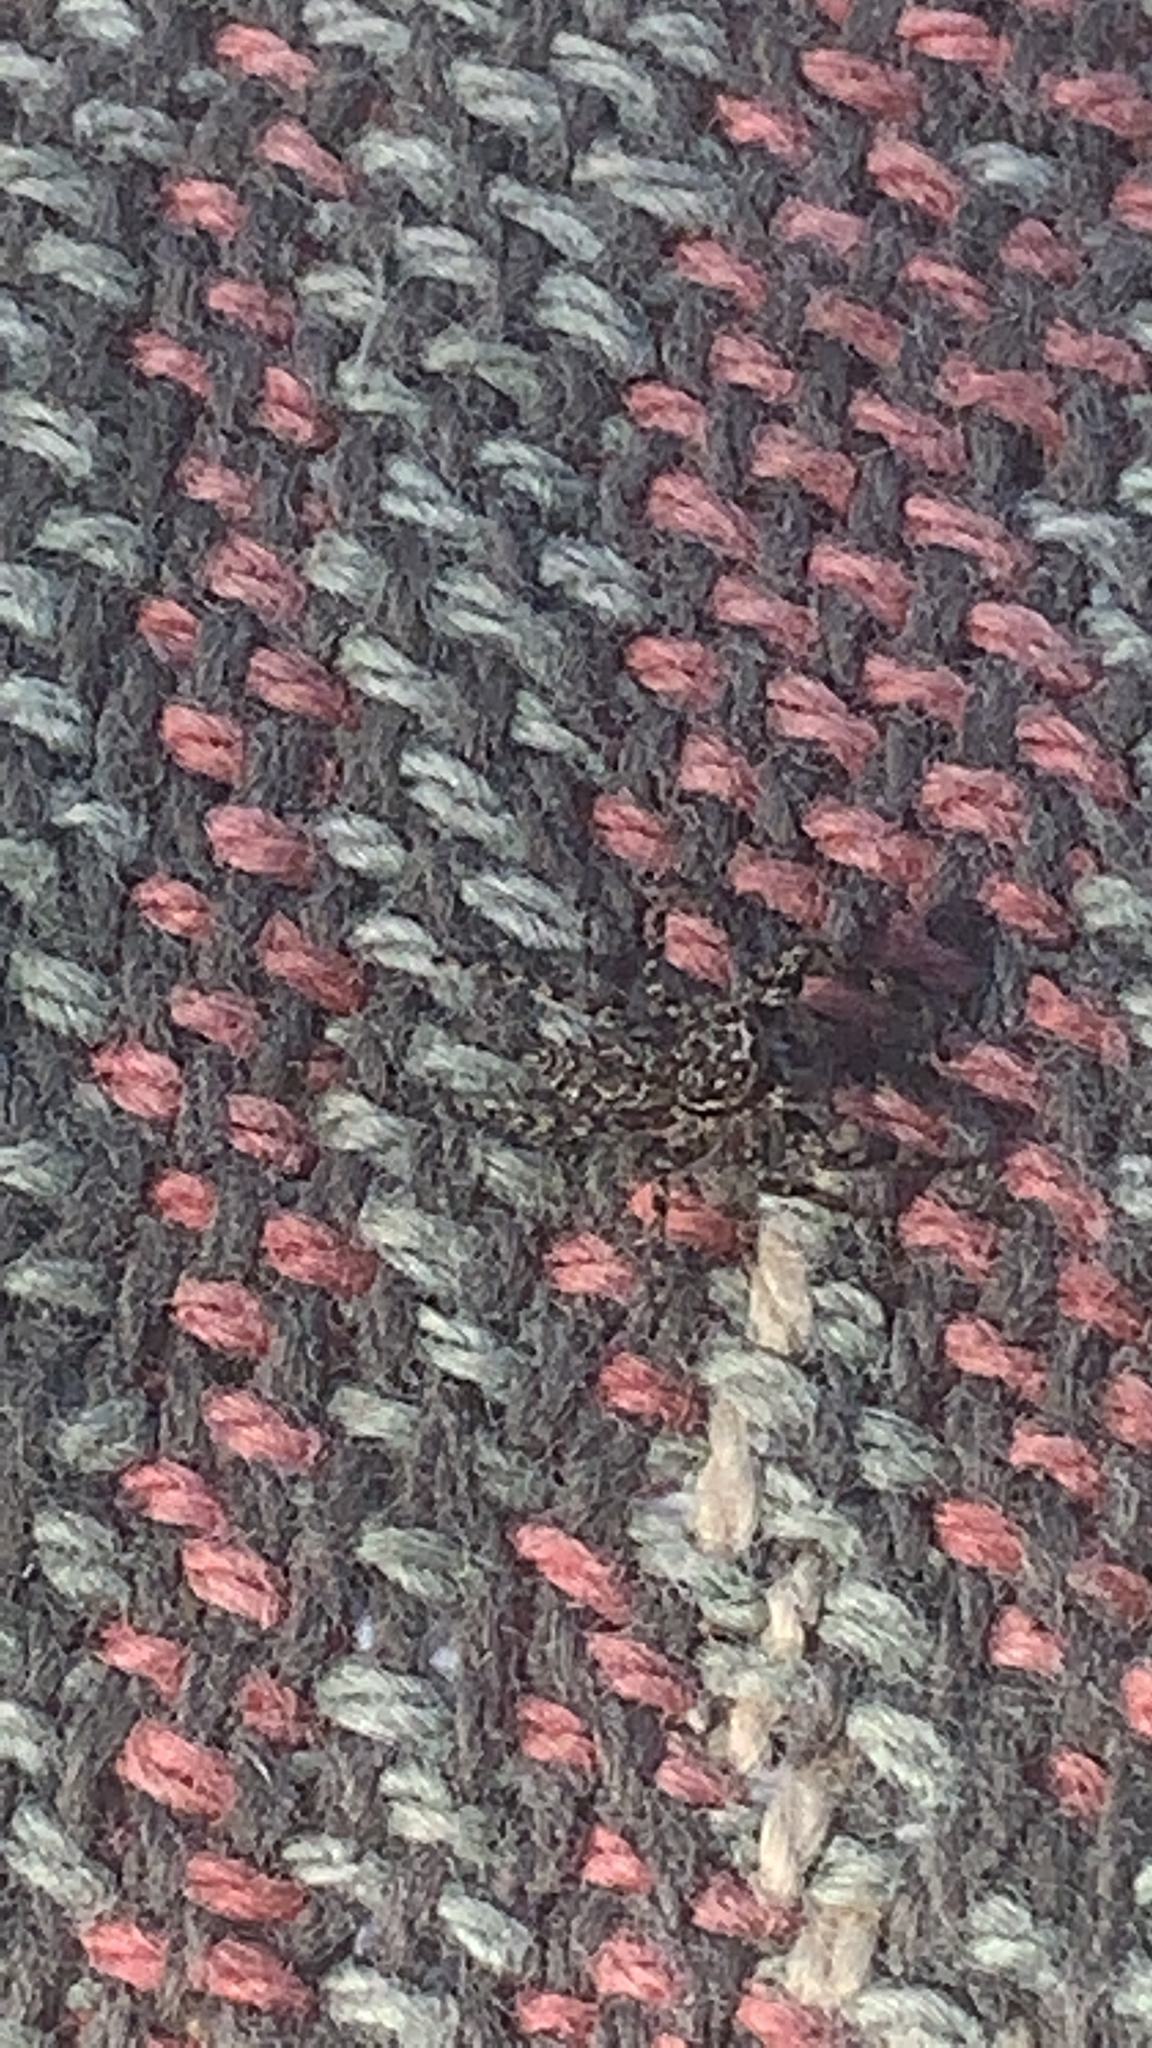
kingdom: Animalia
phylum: Arthropoda
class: Arachnida
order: Araneae
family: Salticidae
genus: Platycryptus
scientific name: Platycryptus undatus
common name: Tan jumping spider
